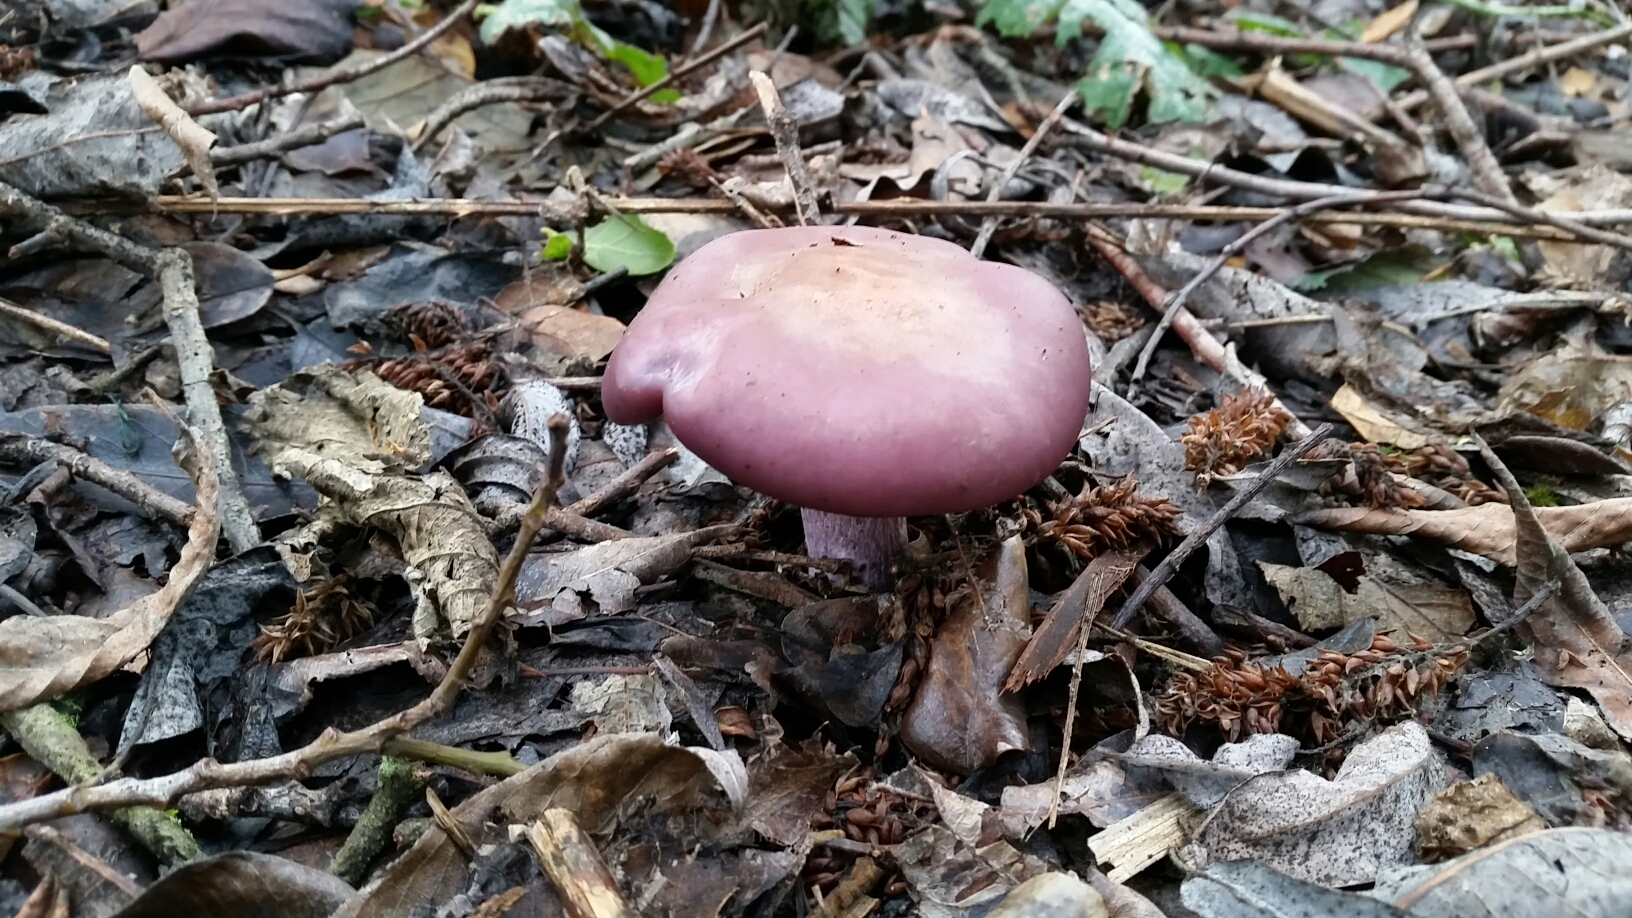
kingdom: Fungi
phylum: Basidiomycota
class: Agaricomycetes
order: Agaricales
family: Tricholomataceae
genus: Collybia
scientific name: Collybia
